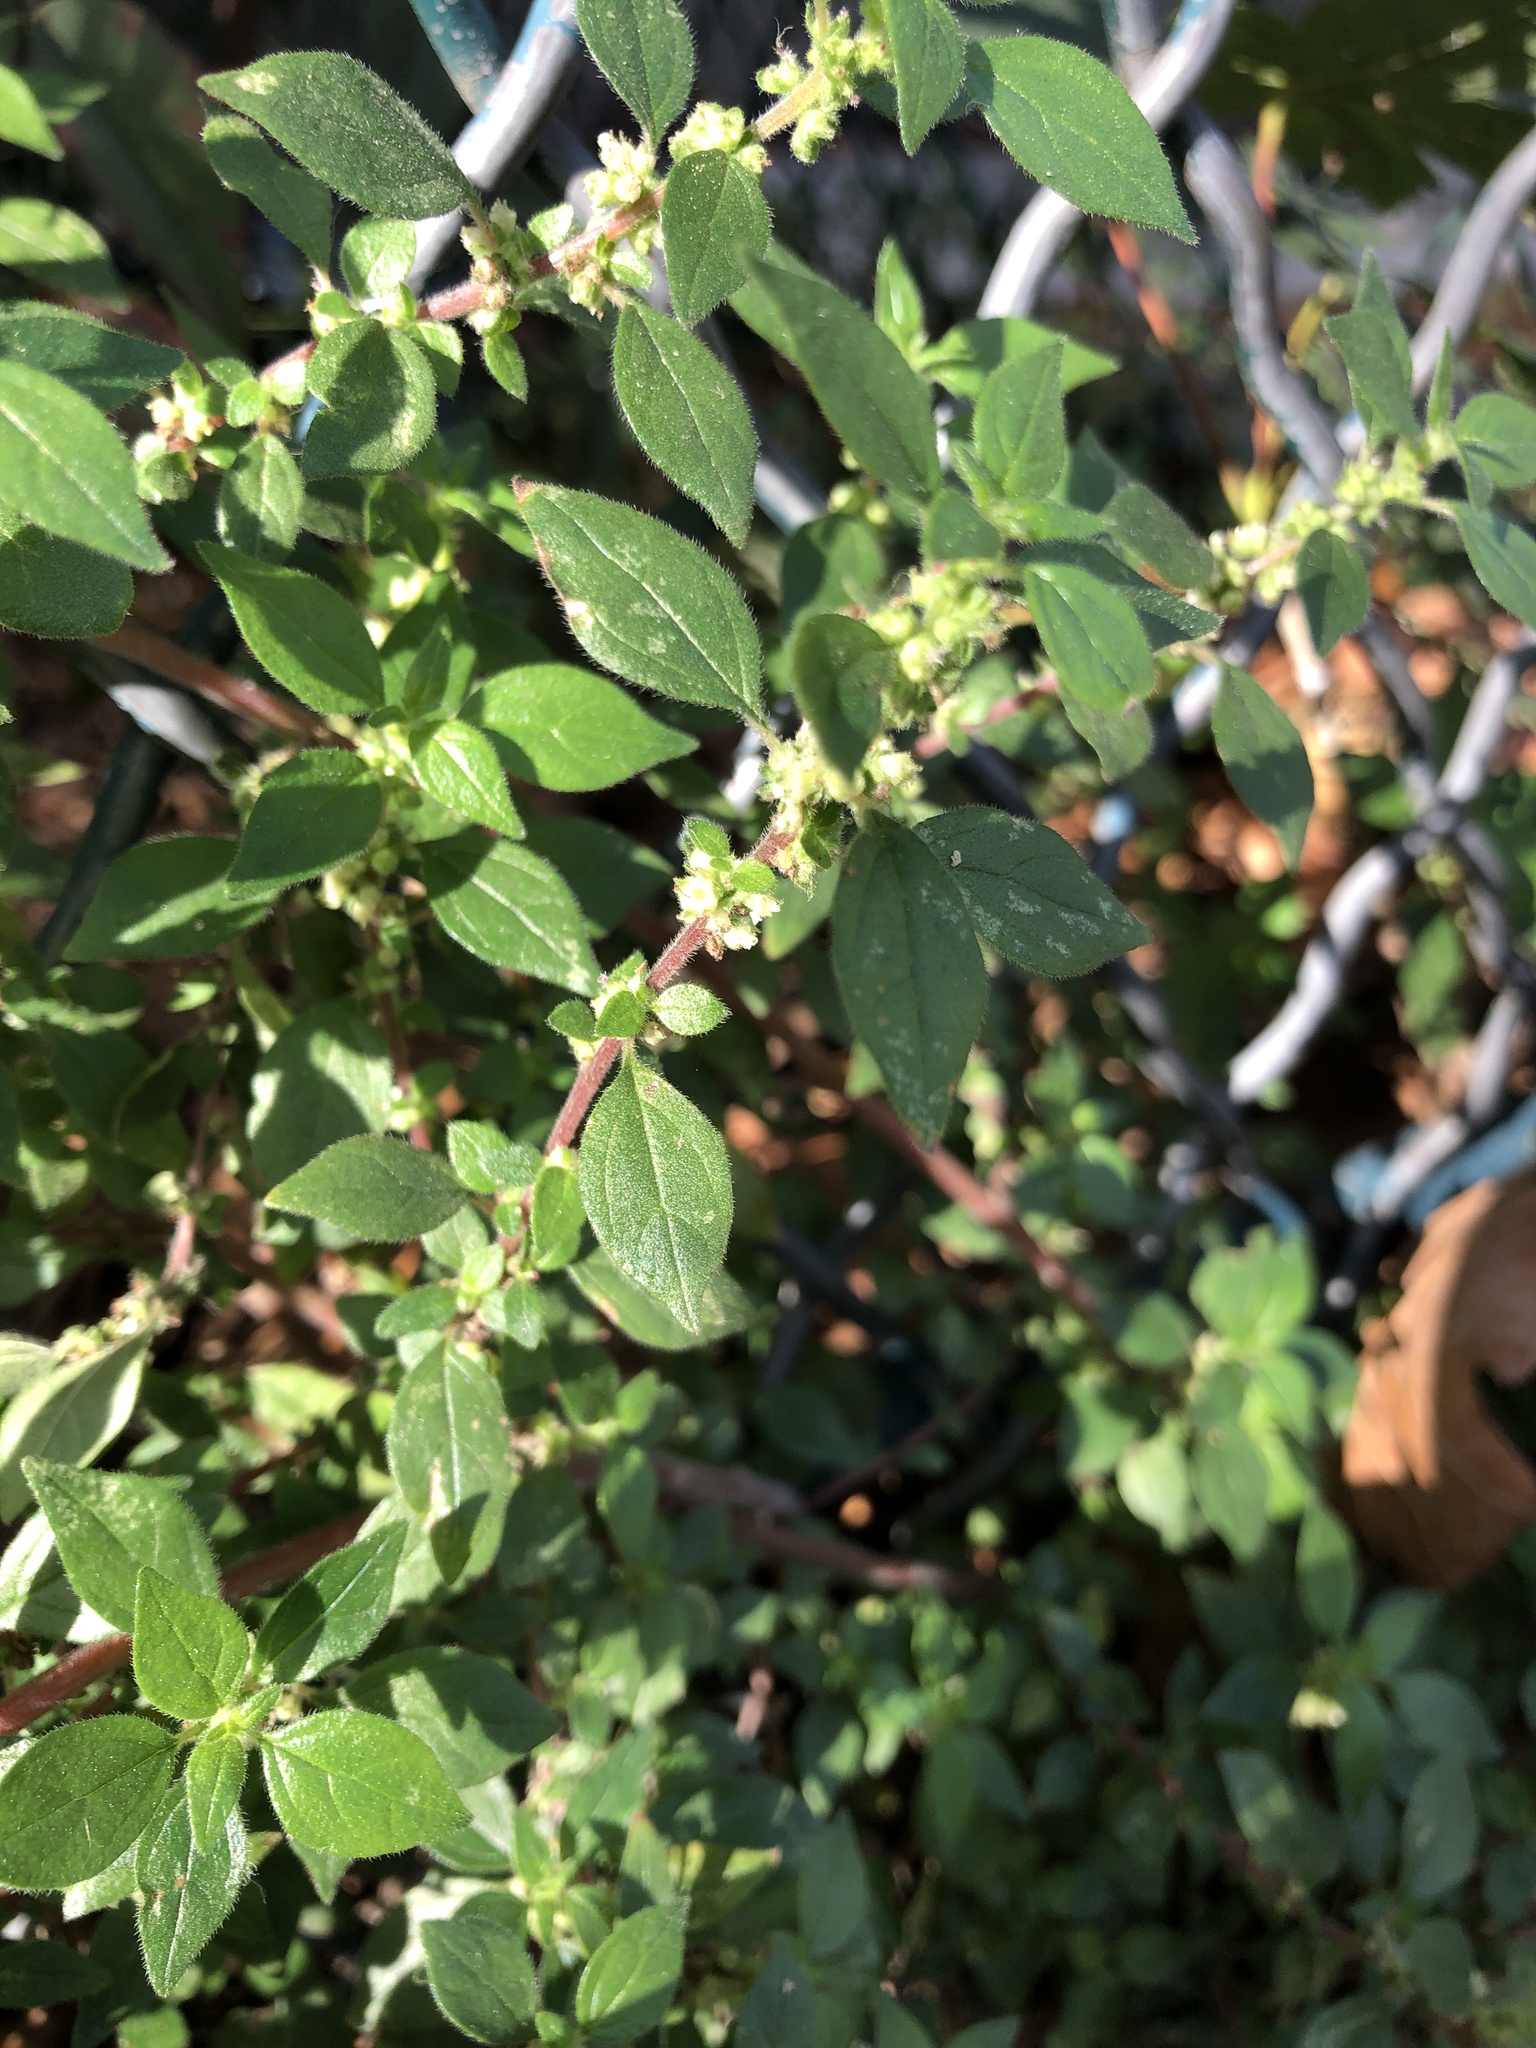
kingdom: Plantae
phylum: Tracheophyta
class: Magnoliopsida
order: Rosales
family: Urticaceae
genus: Parietaria
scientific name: Parietaria judaica
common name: Pellitory-of-the-wall
